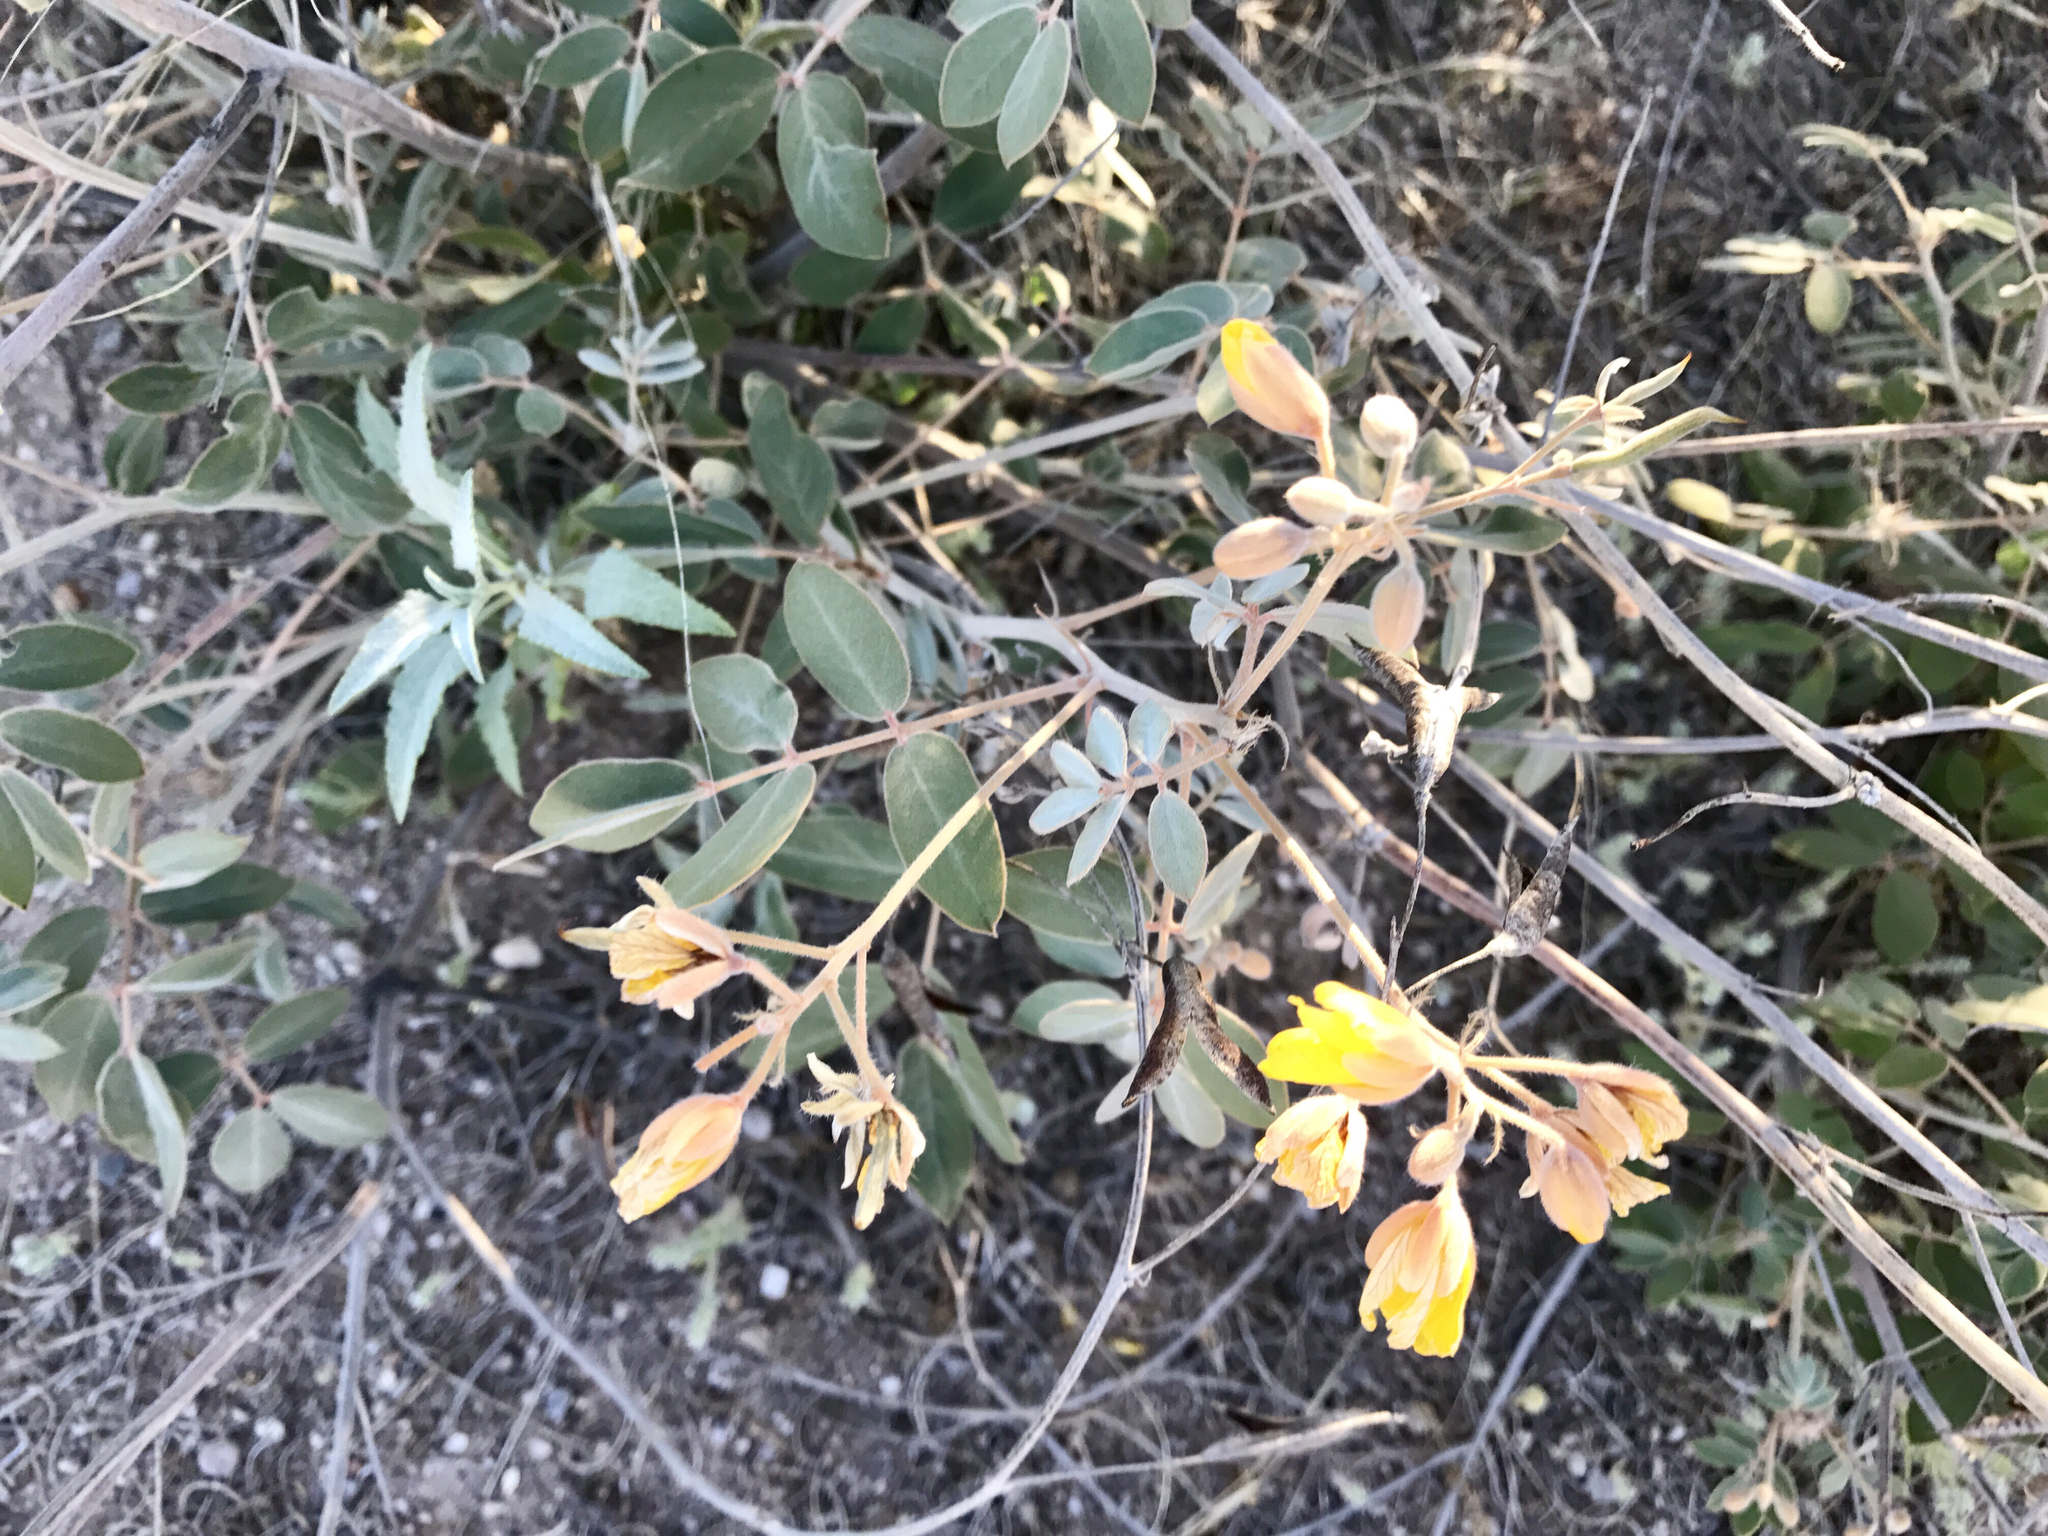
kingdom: Plantae
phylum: Tracheophyta
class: Magnoliopsida
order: Fabales
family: Fabaceae
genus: Senna
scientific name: Senna covesii
